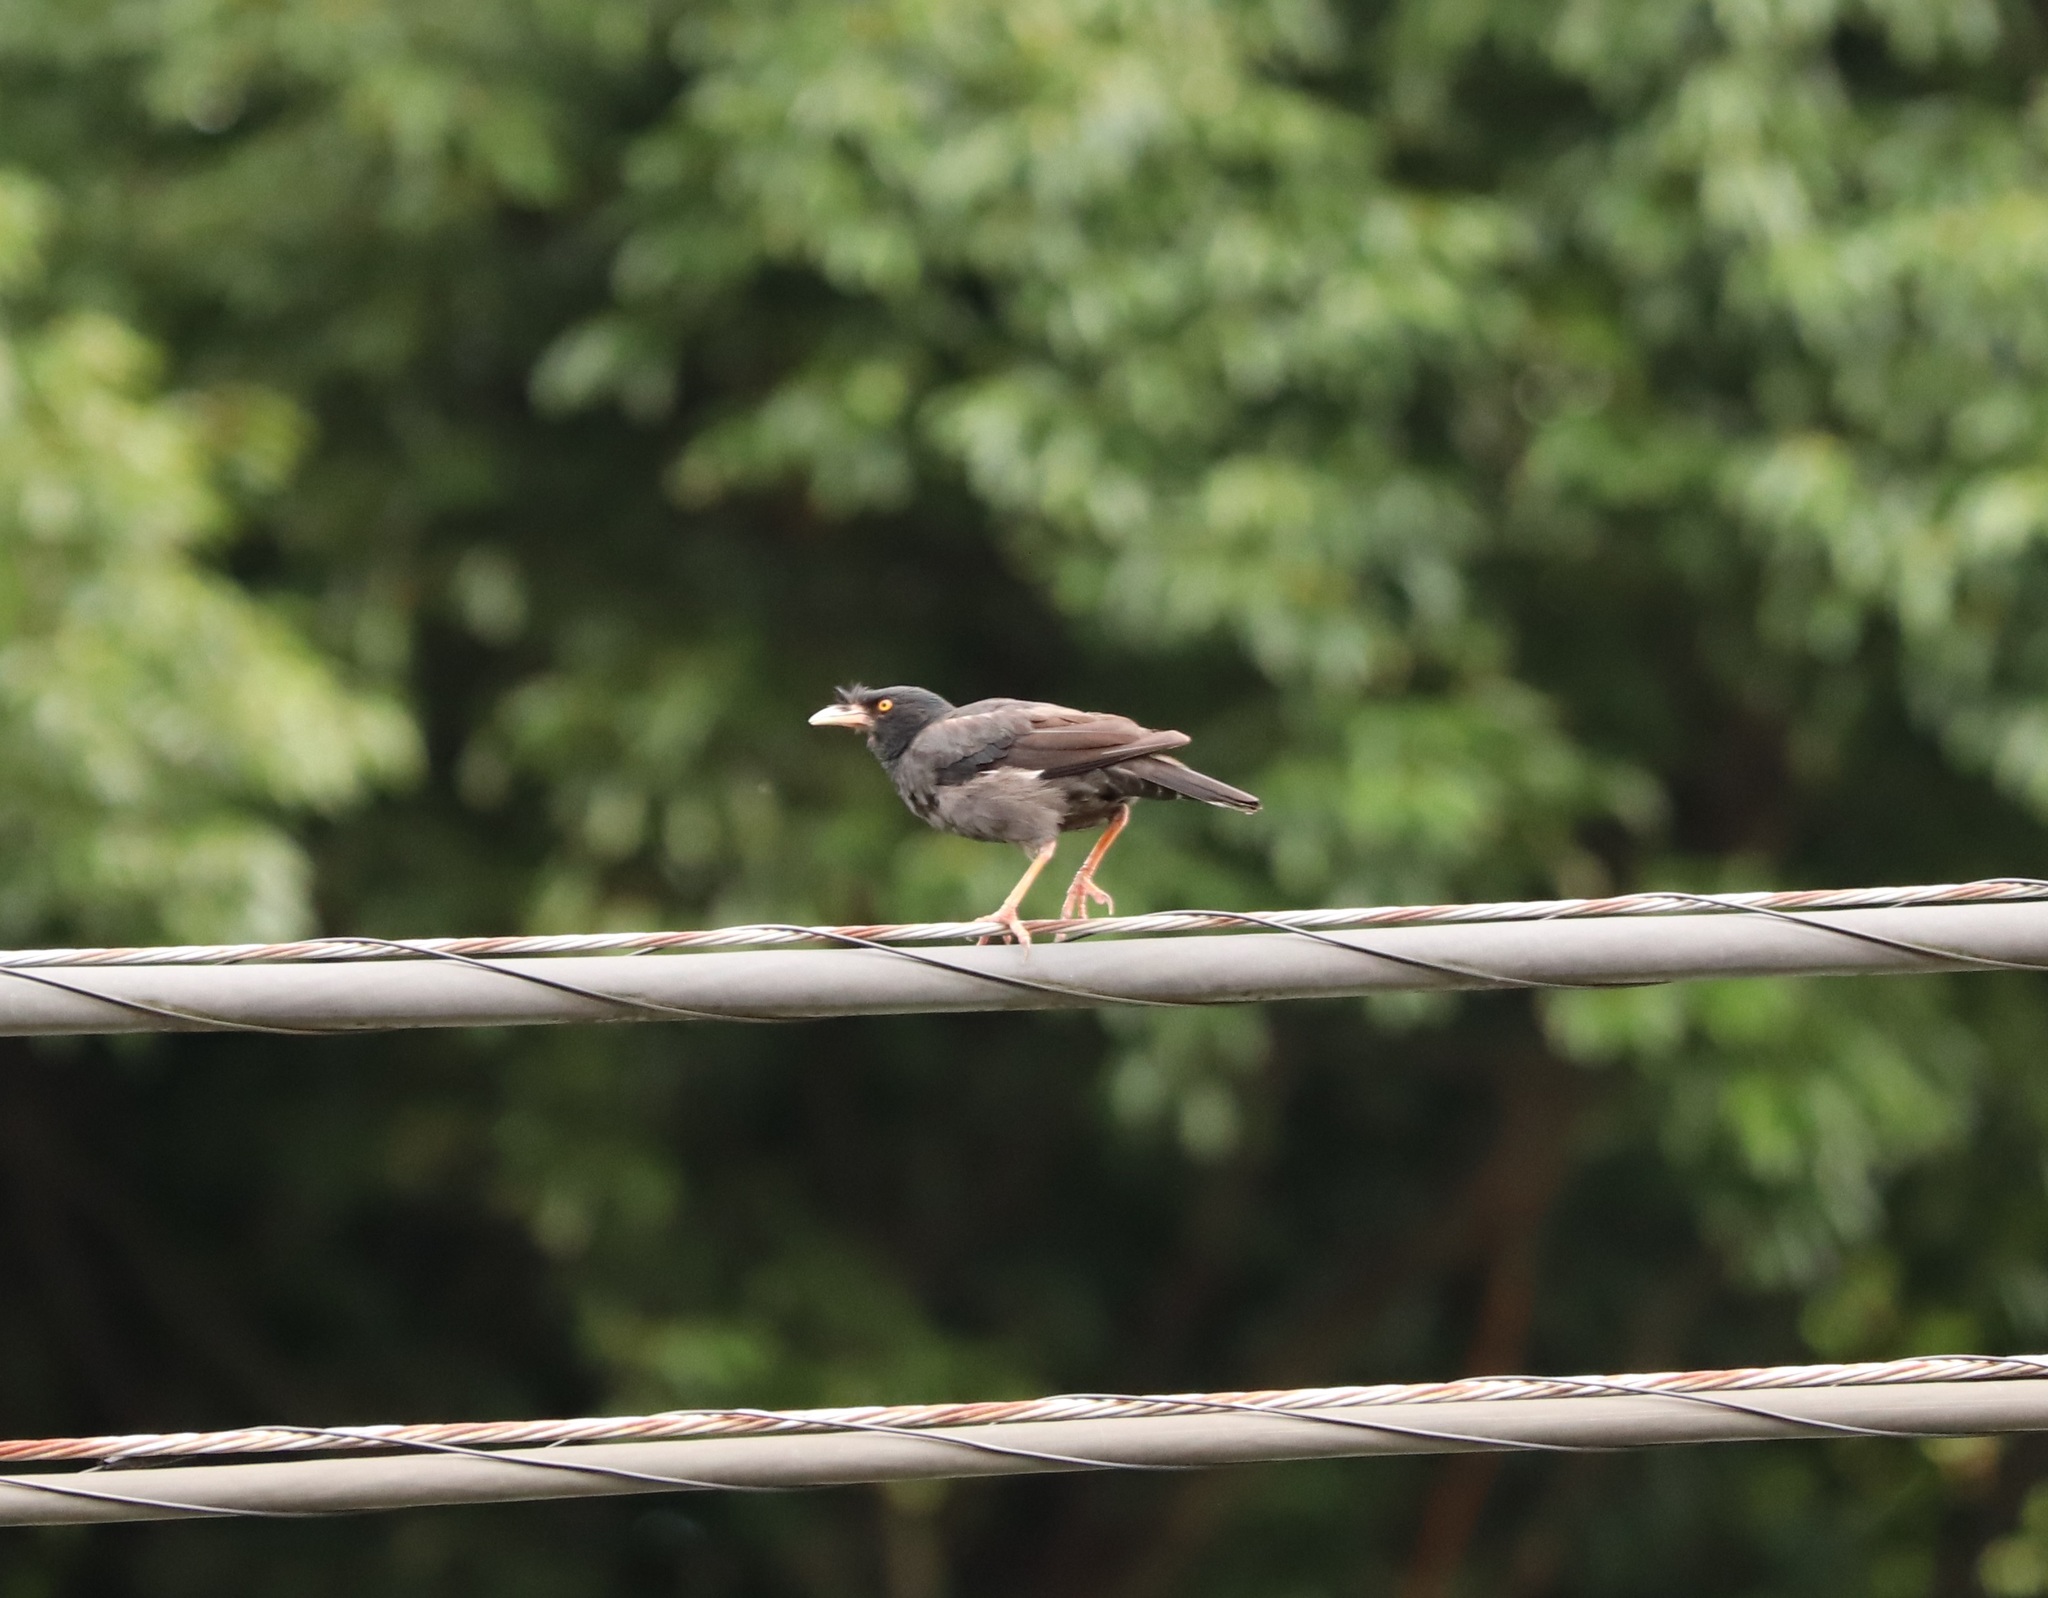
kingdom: Animalia
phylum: Chordata
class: Aves
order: Passeriformes
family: Sturnidae
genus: Acridotheres
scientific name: Acridotheres cristatellus
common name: Crested myna
